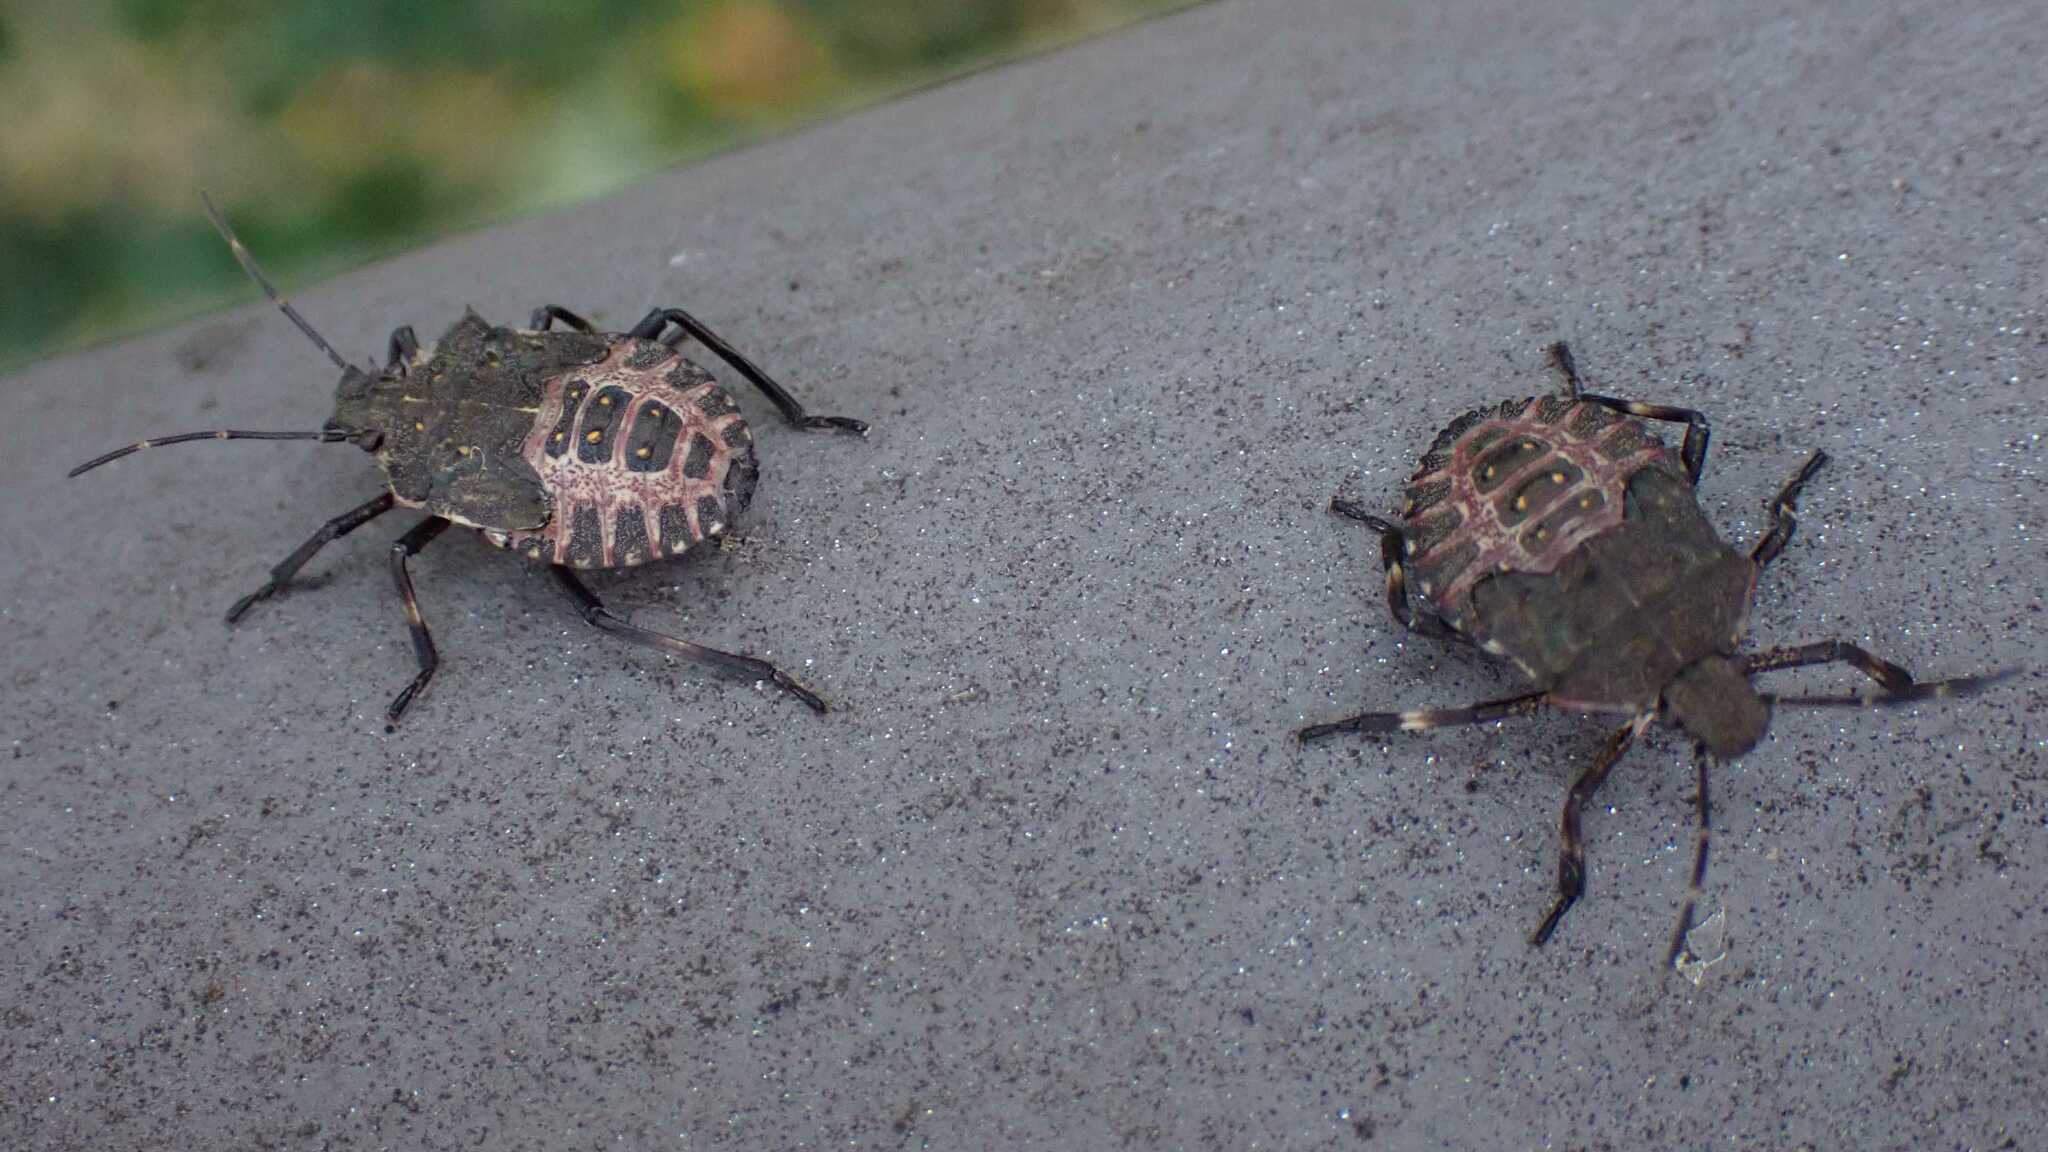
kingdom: Animalia
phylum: Arthropoda
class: Insecta
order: Hemiptera
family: Pentatomidae
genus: Halyomorpha
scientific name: Halyomorpha halys
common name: Brown marmorated stink bug
